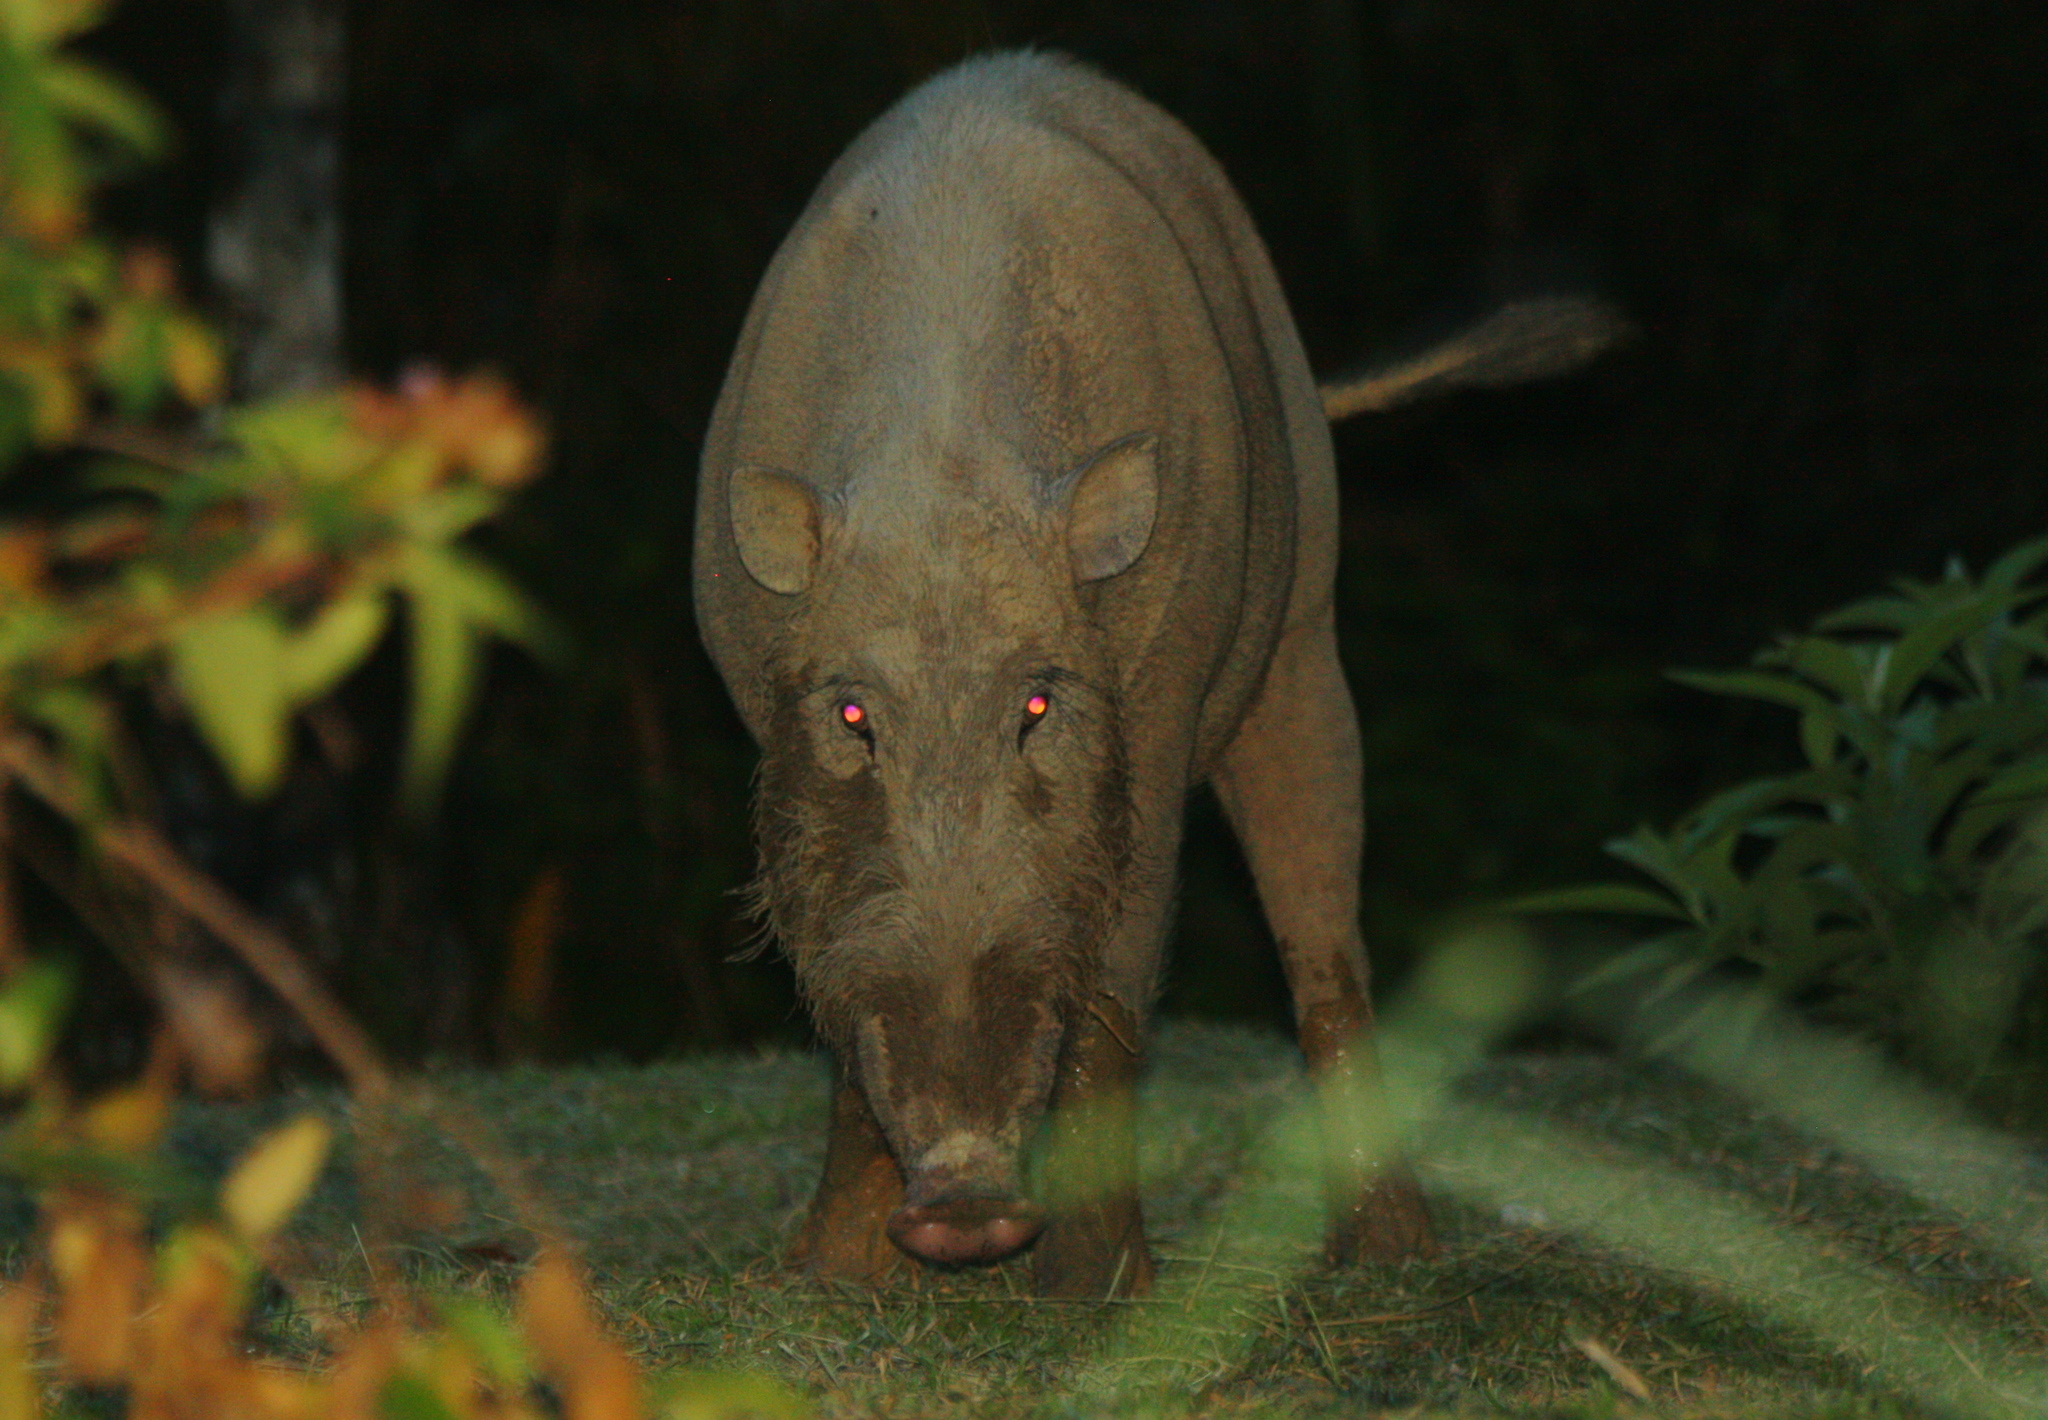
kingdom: Animalia
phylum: Chordata
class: Mammalia
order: Artiodactyla
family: Suidae
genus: Sus
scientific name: Sus barbatus
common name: Bearded pig
